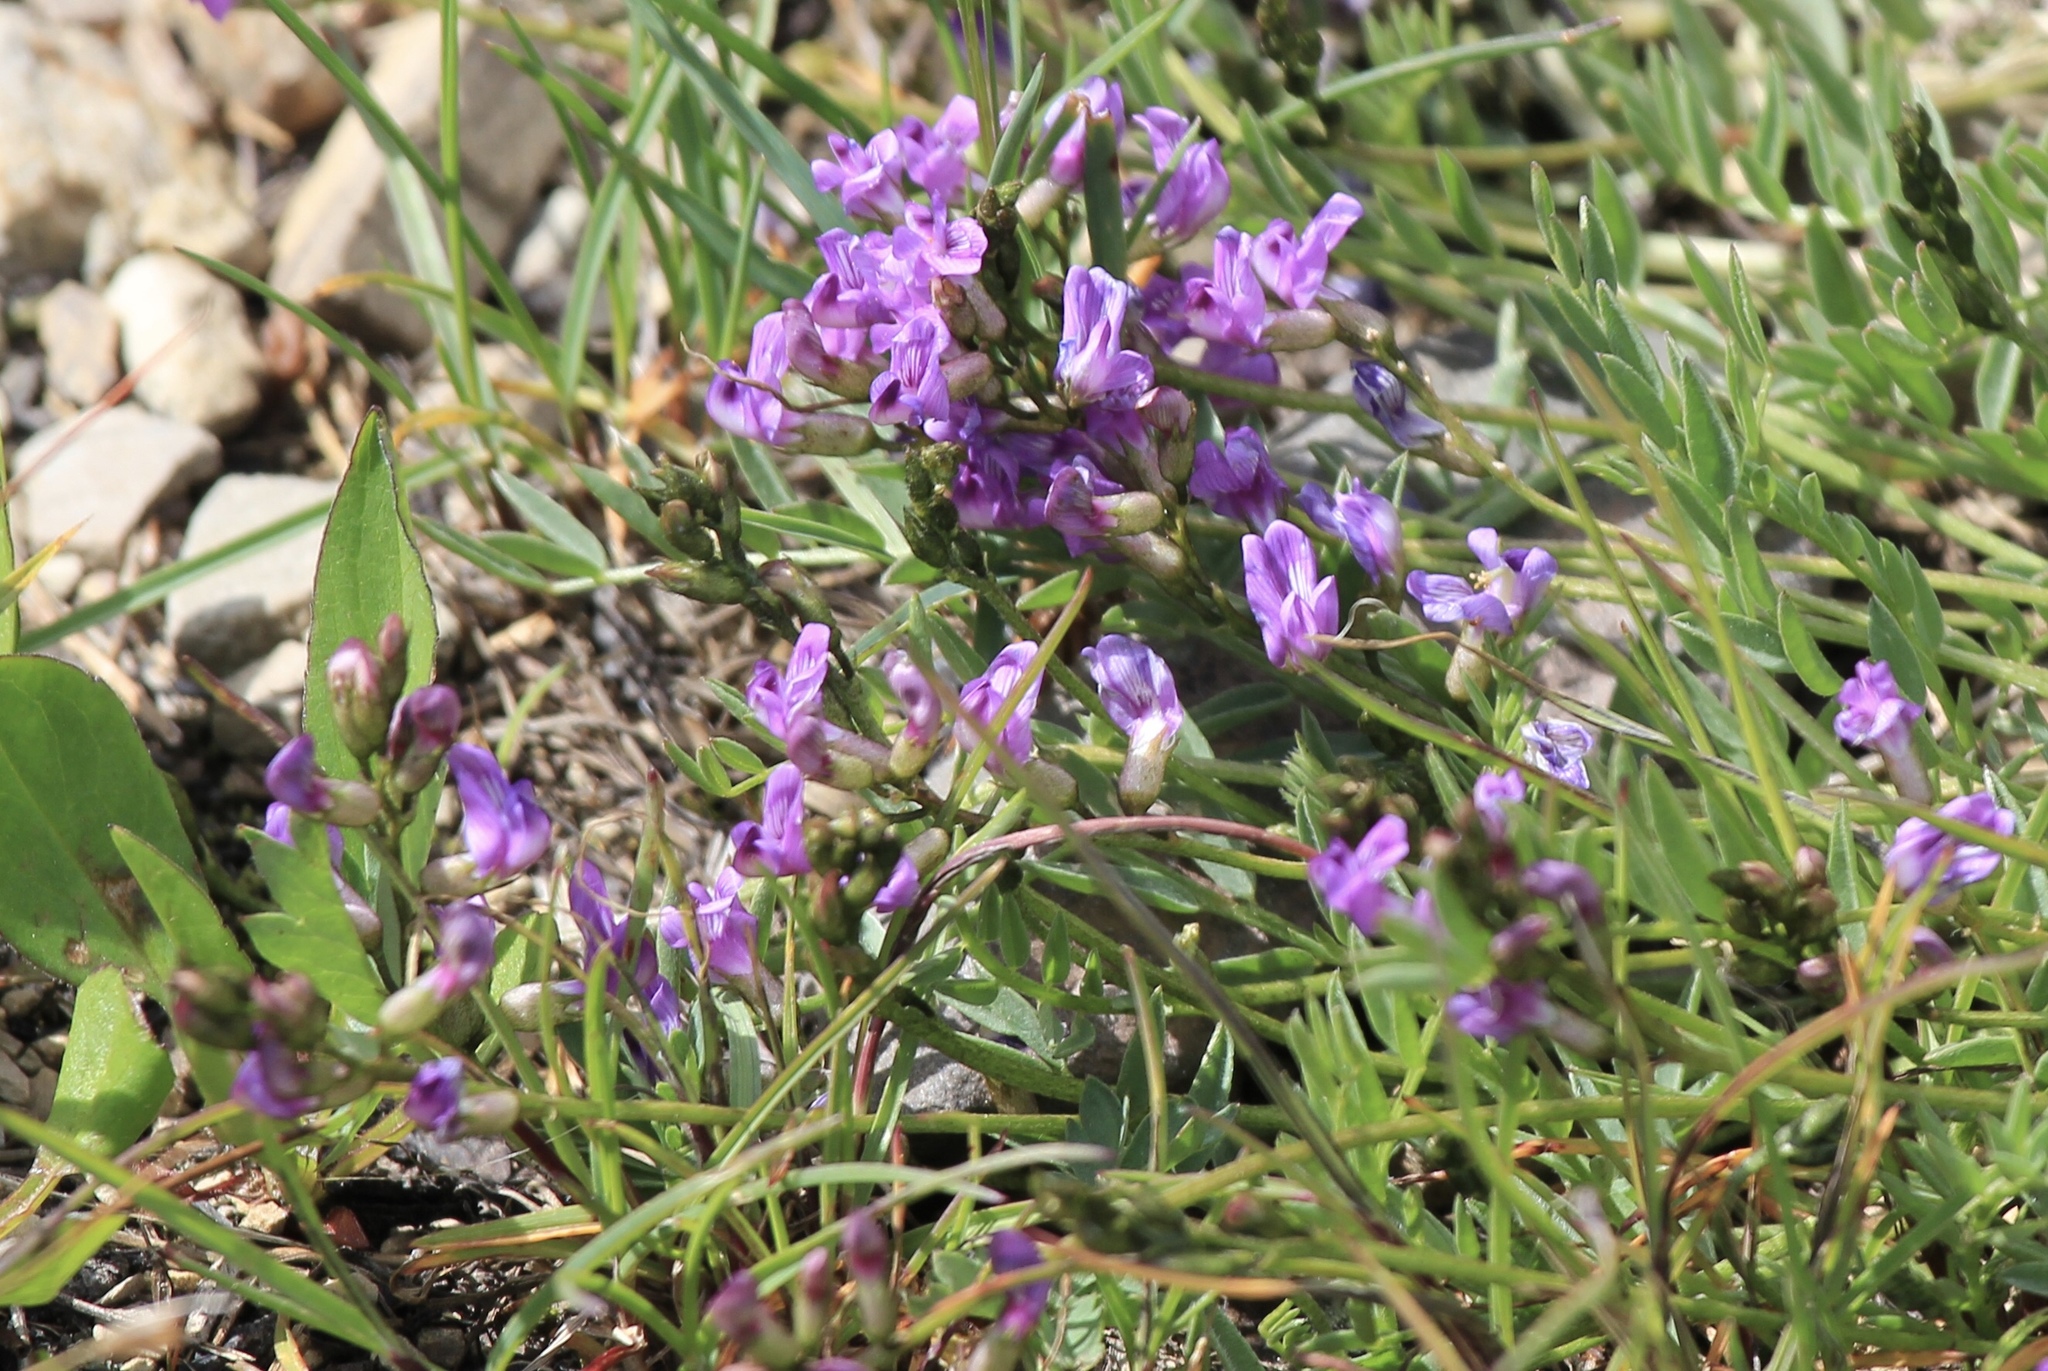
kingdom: Plantae
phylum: Tracheophyta
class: Magnoliopsida
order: Fabales
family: Fabaceae
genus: Astragalus
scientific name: Astragalus bourgovii
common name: Bourgeau's milk-vetch
